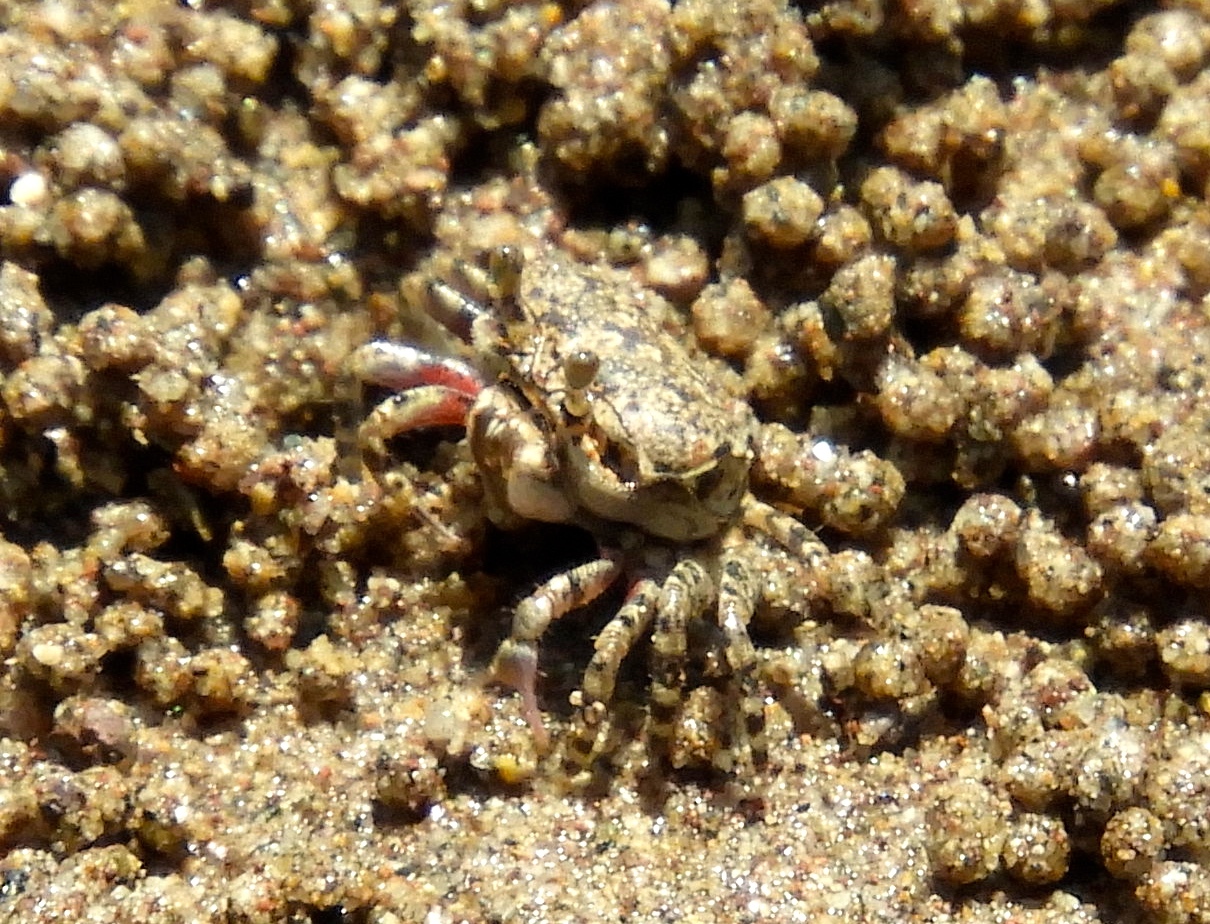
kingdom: Animalia
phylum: Arthropoda
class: Malacostraca
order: Decapoda
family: Ocypodidae
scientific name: Ocypodidae
